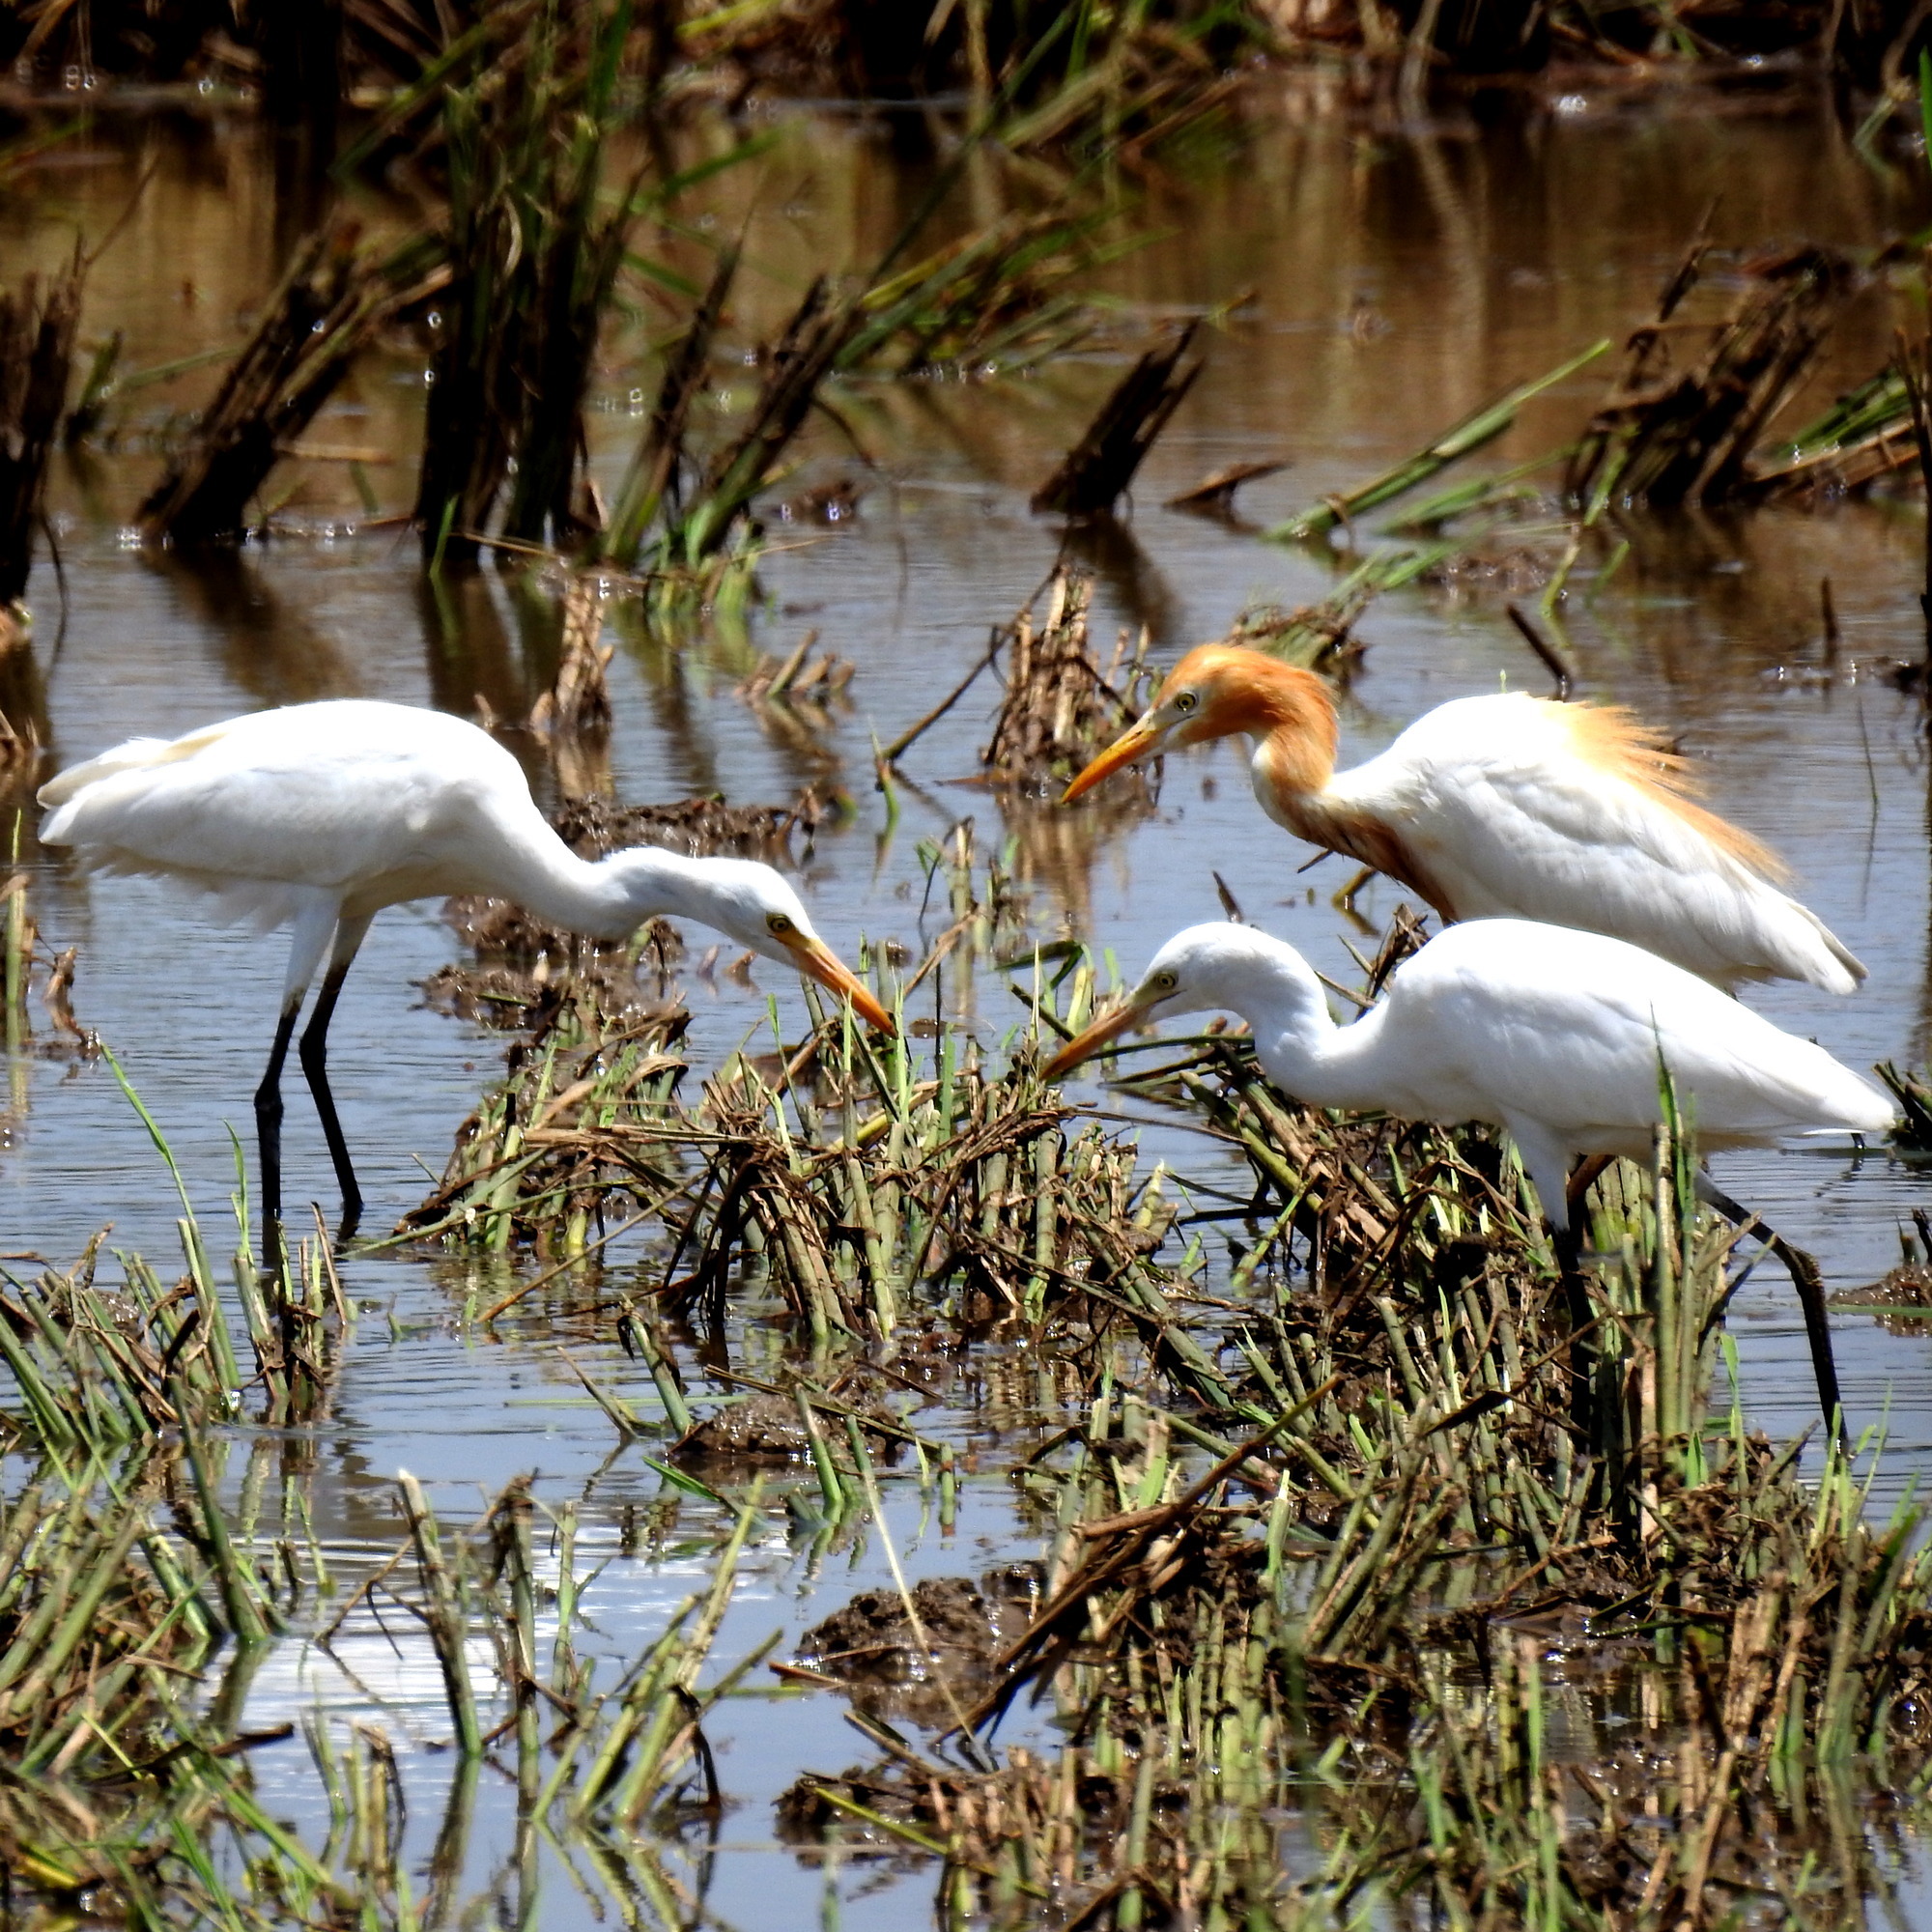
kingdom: Animalia
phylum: Chordata
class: Aves
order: Pelecaniformes
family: Ardeidae
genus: Bubulcus
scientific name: Bubulcus coromandus
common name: Eastern cattle egret
